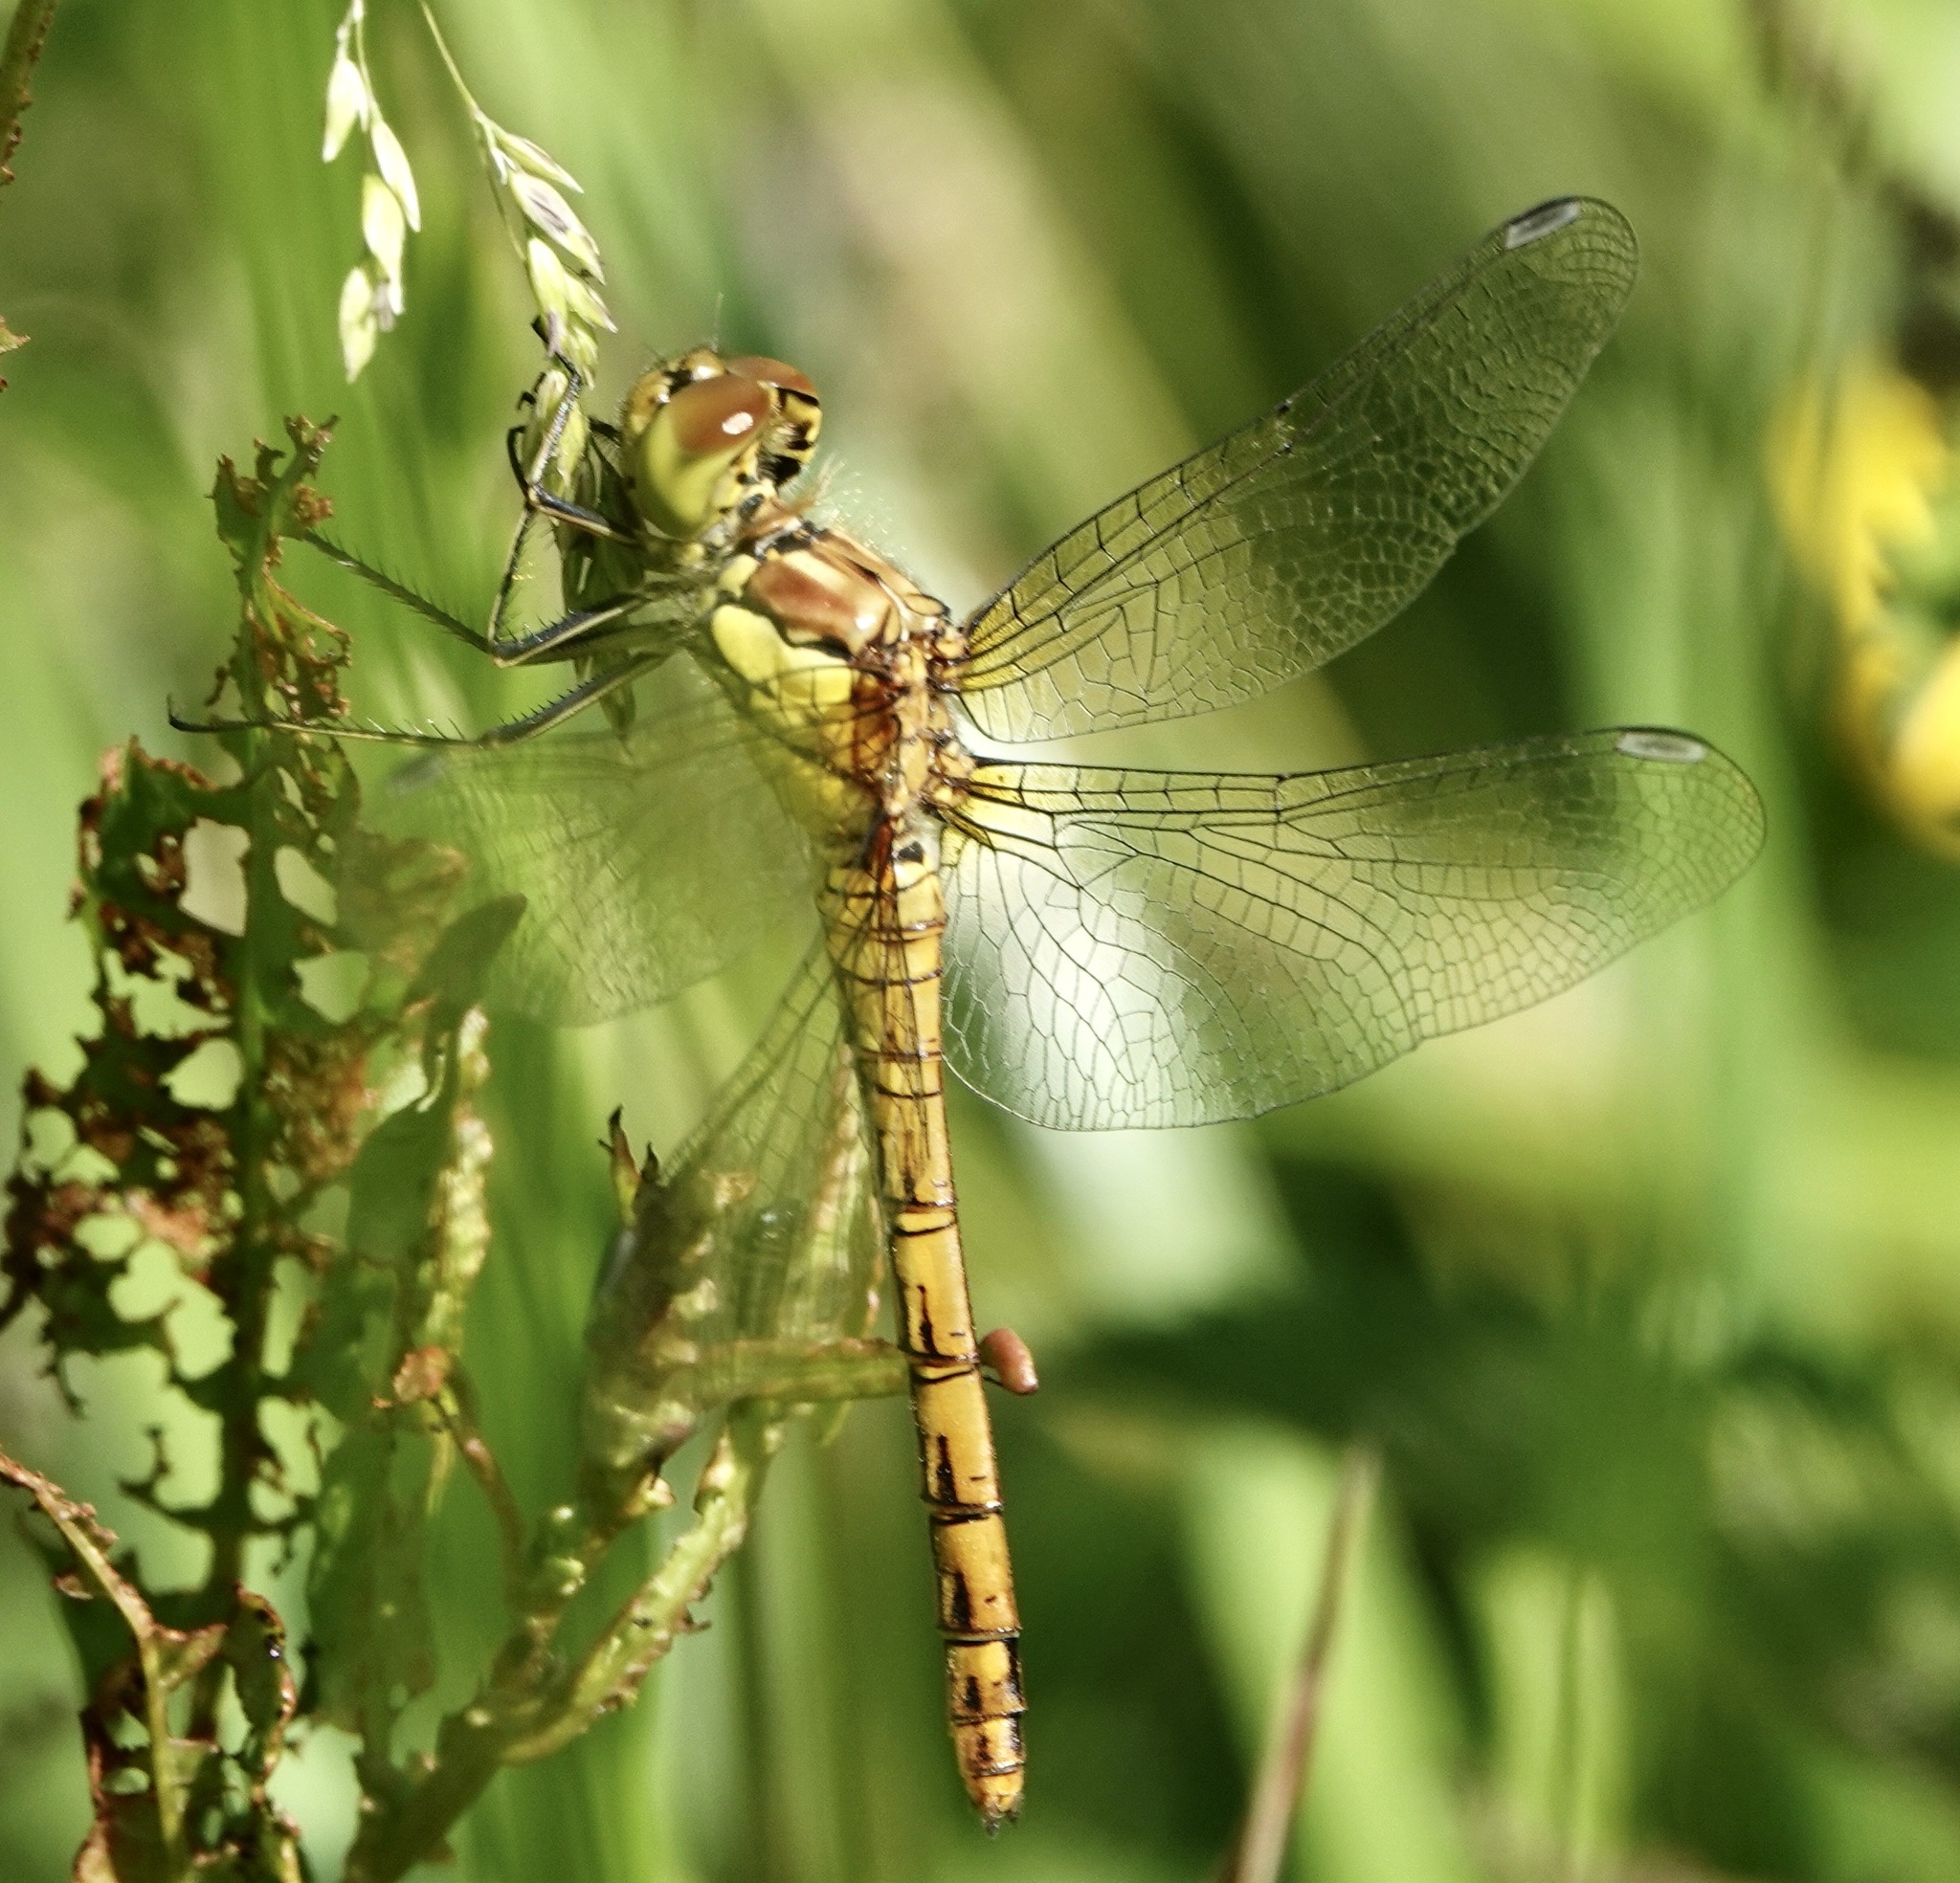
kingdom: Animalia
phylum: Arthropoda
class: Insecta
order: Odonata
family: Libellulidae
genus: Sympetrum
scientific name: Sympetrum striolatum
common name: Common darter
